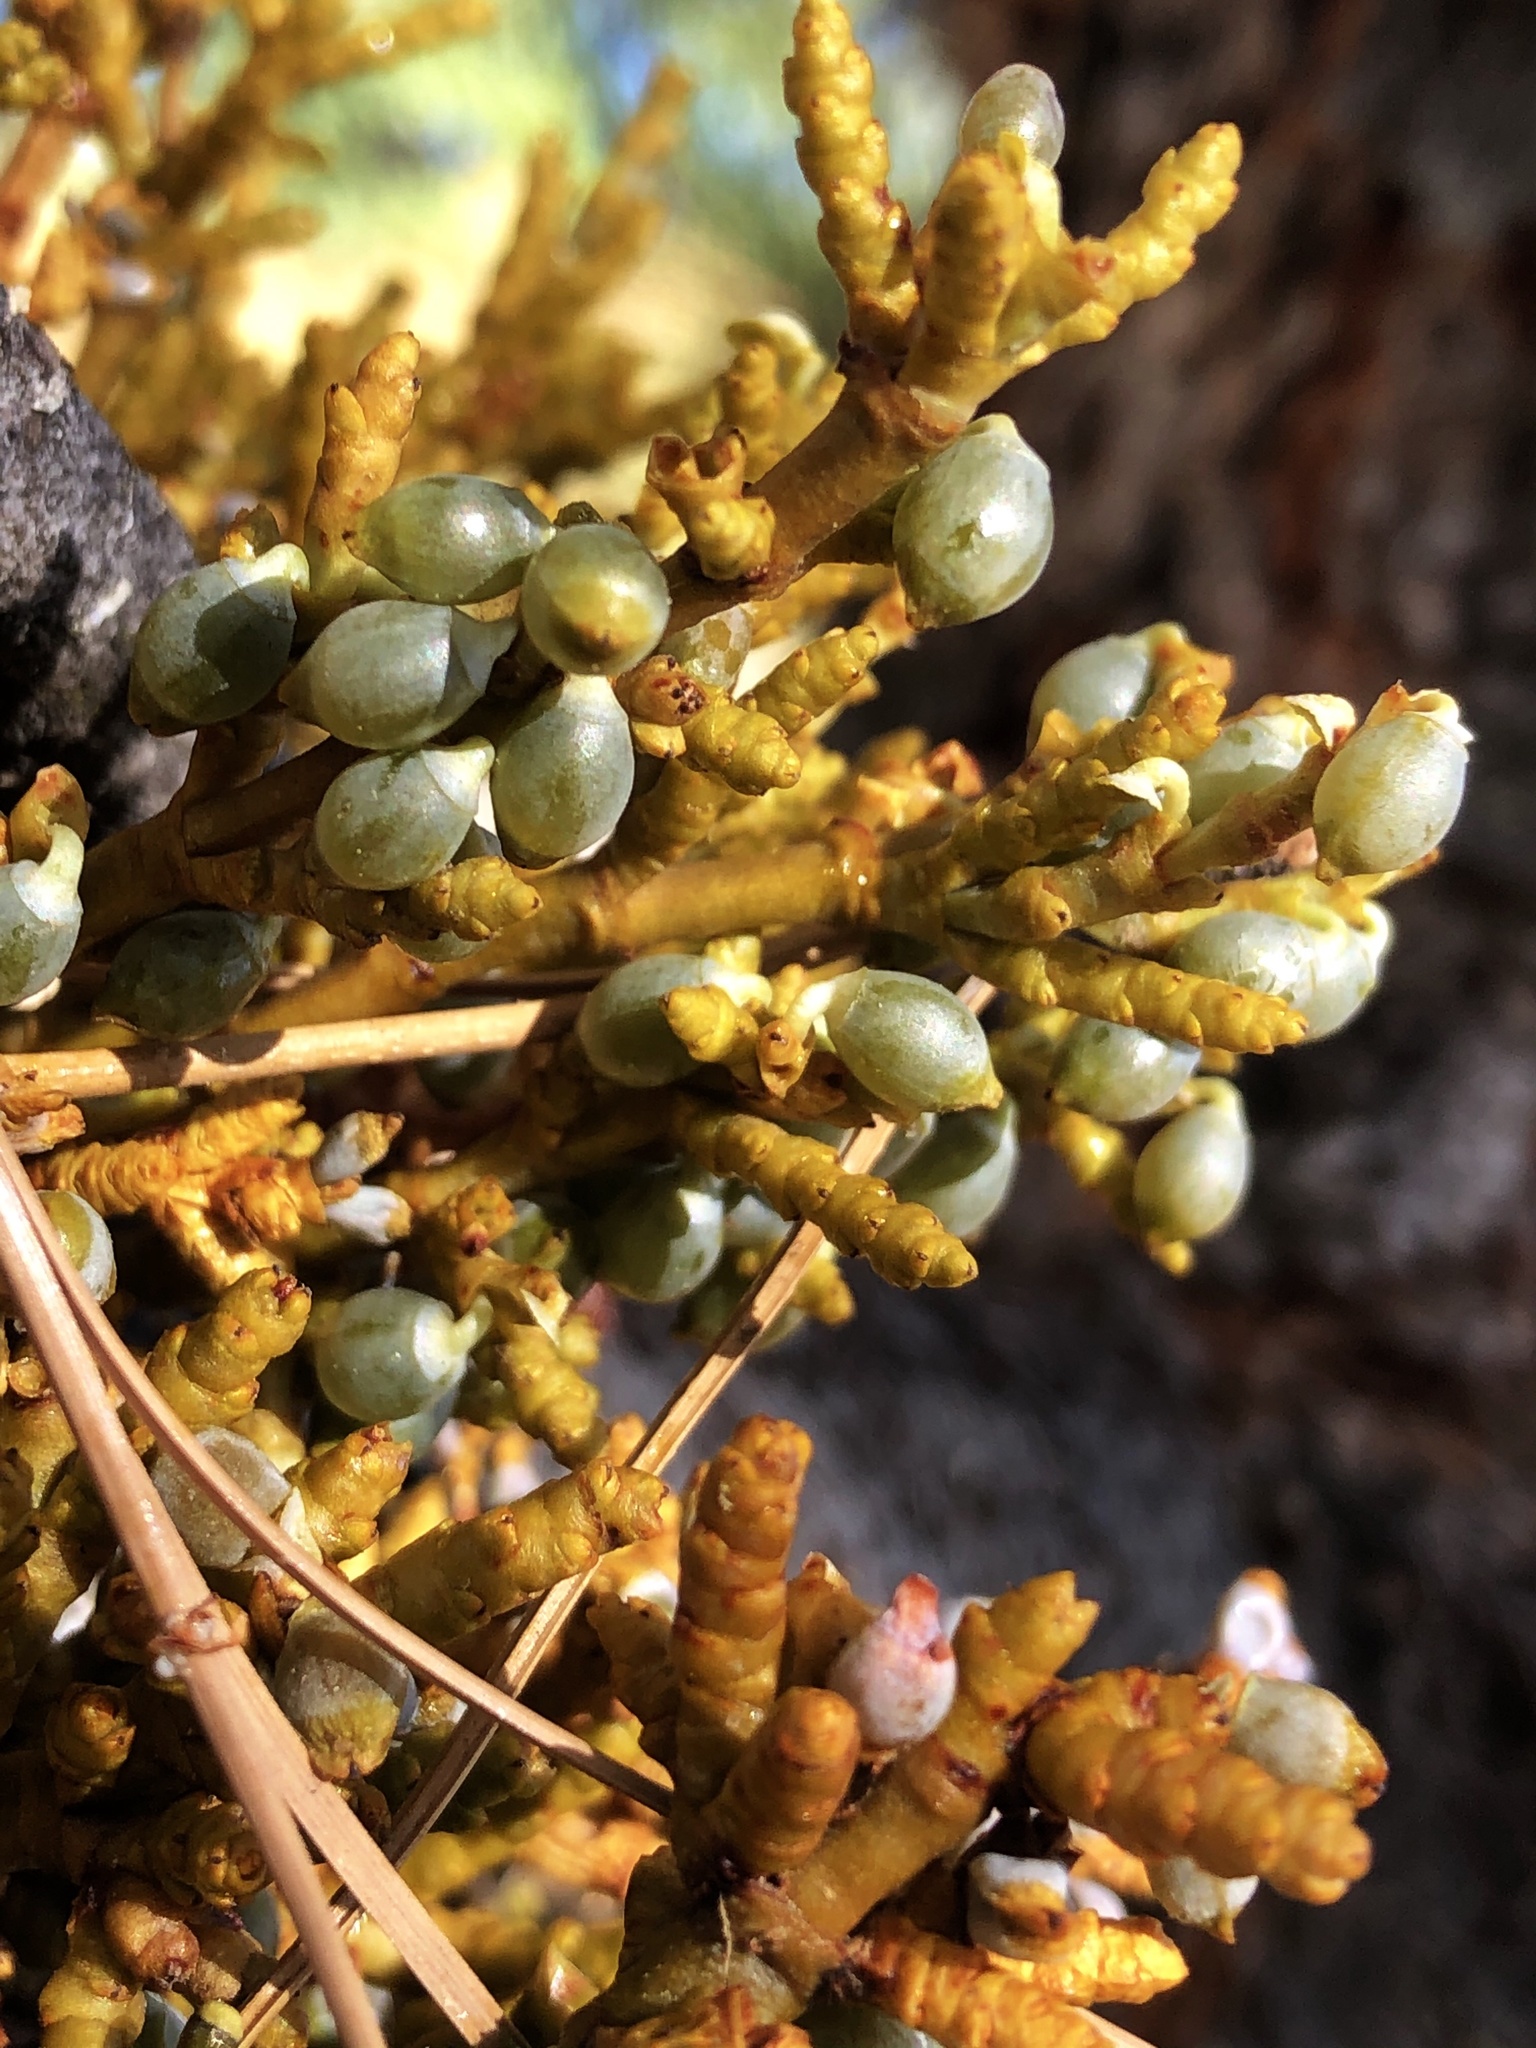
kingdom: Plantae
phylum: Tracheophyta
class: Magnoliopsida
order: Santalales
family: Viscaceae
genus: Arceuthobium
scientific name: Arceuthobium campylopodum
